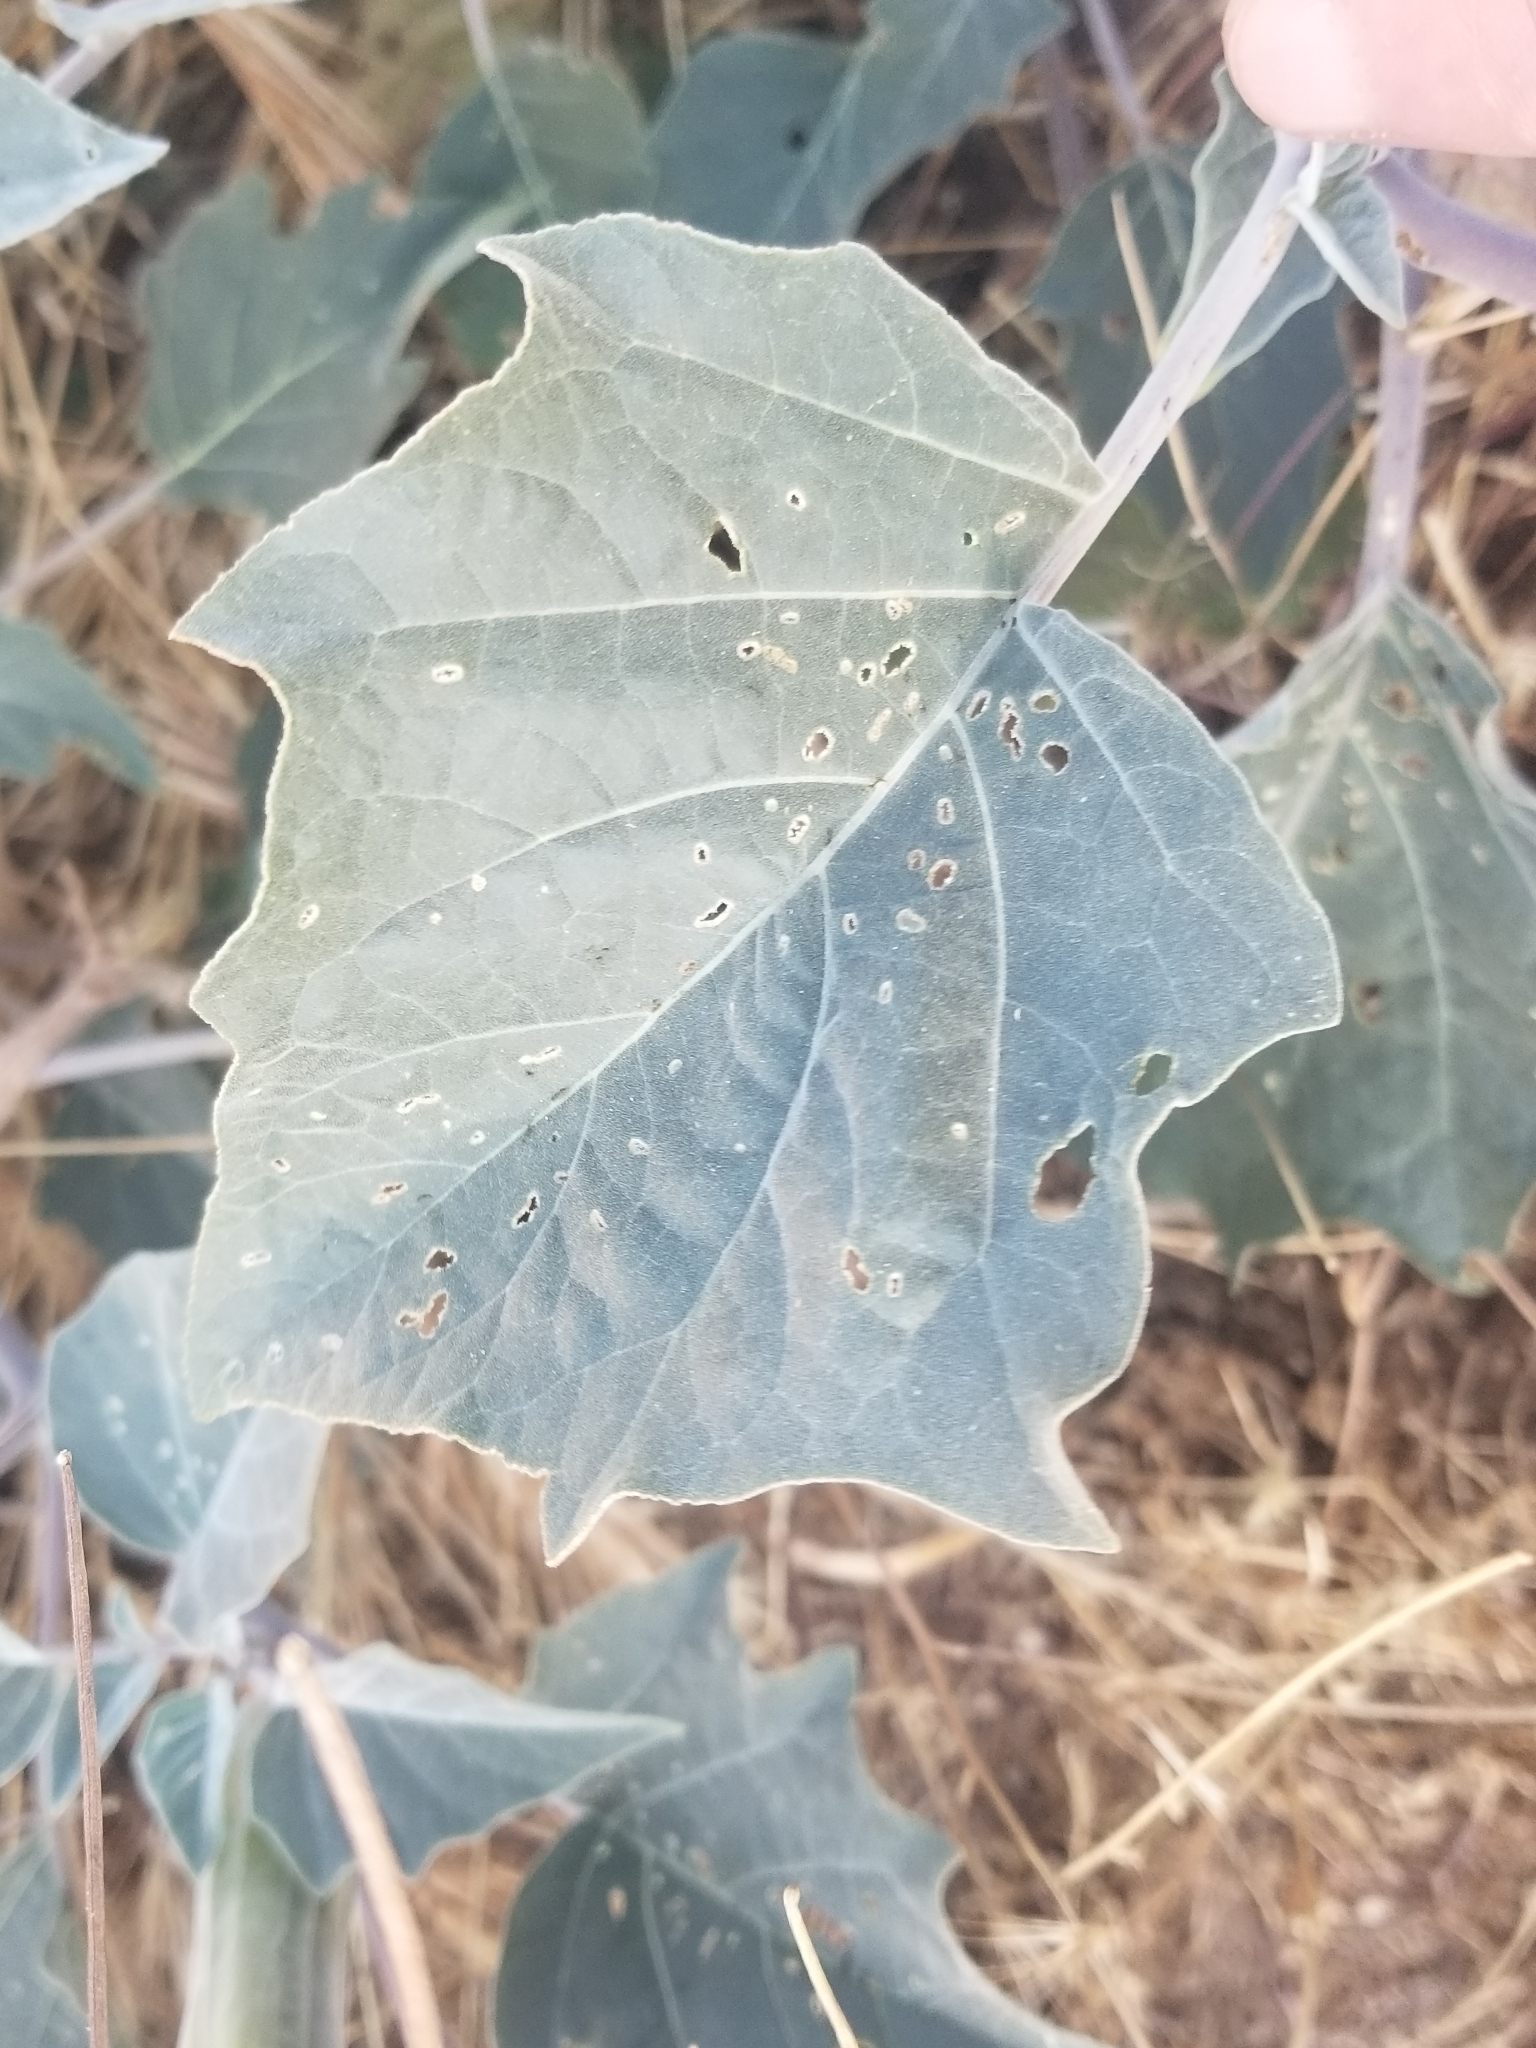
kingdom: Plantae
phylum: Tracheophyta
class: Magnoliopsida
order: Solanales
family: Solanaceae
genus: Datura
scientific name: Datura wrightii
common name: Sacred thorn-apple
